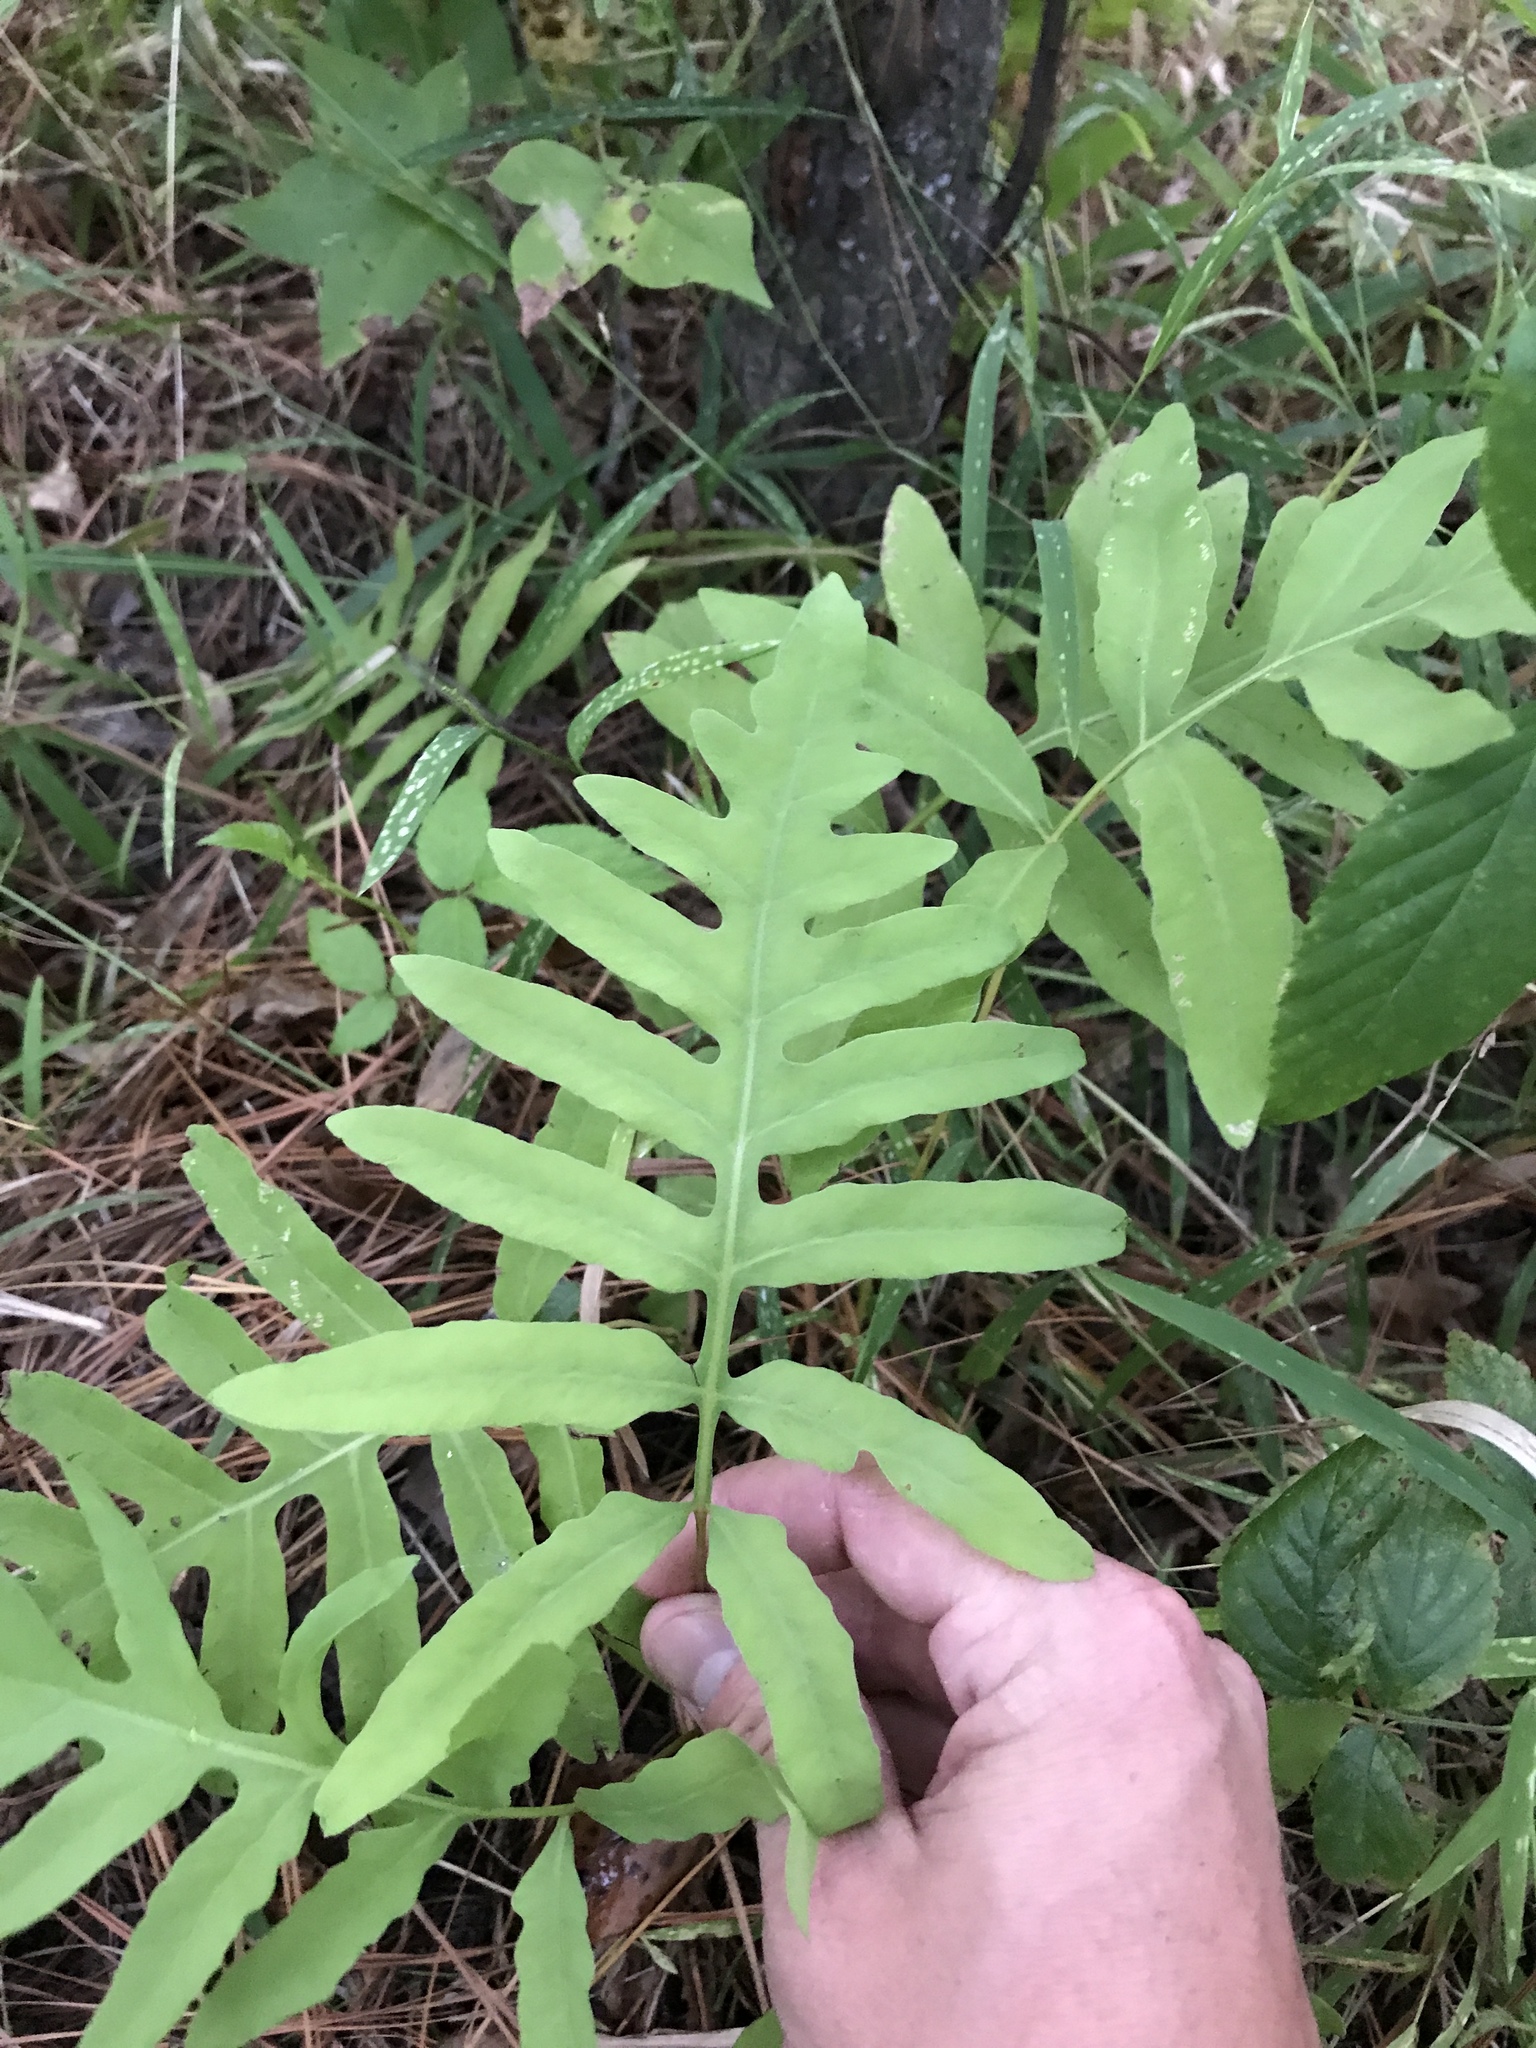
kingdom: Plantae
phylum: Tracheophyta
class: Polypodiopsida
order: Polypodiales
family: Onocleaceae
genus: Onoclea
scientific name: Onoclea sensibilis
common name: Sensitive fern
